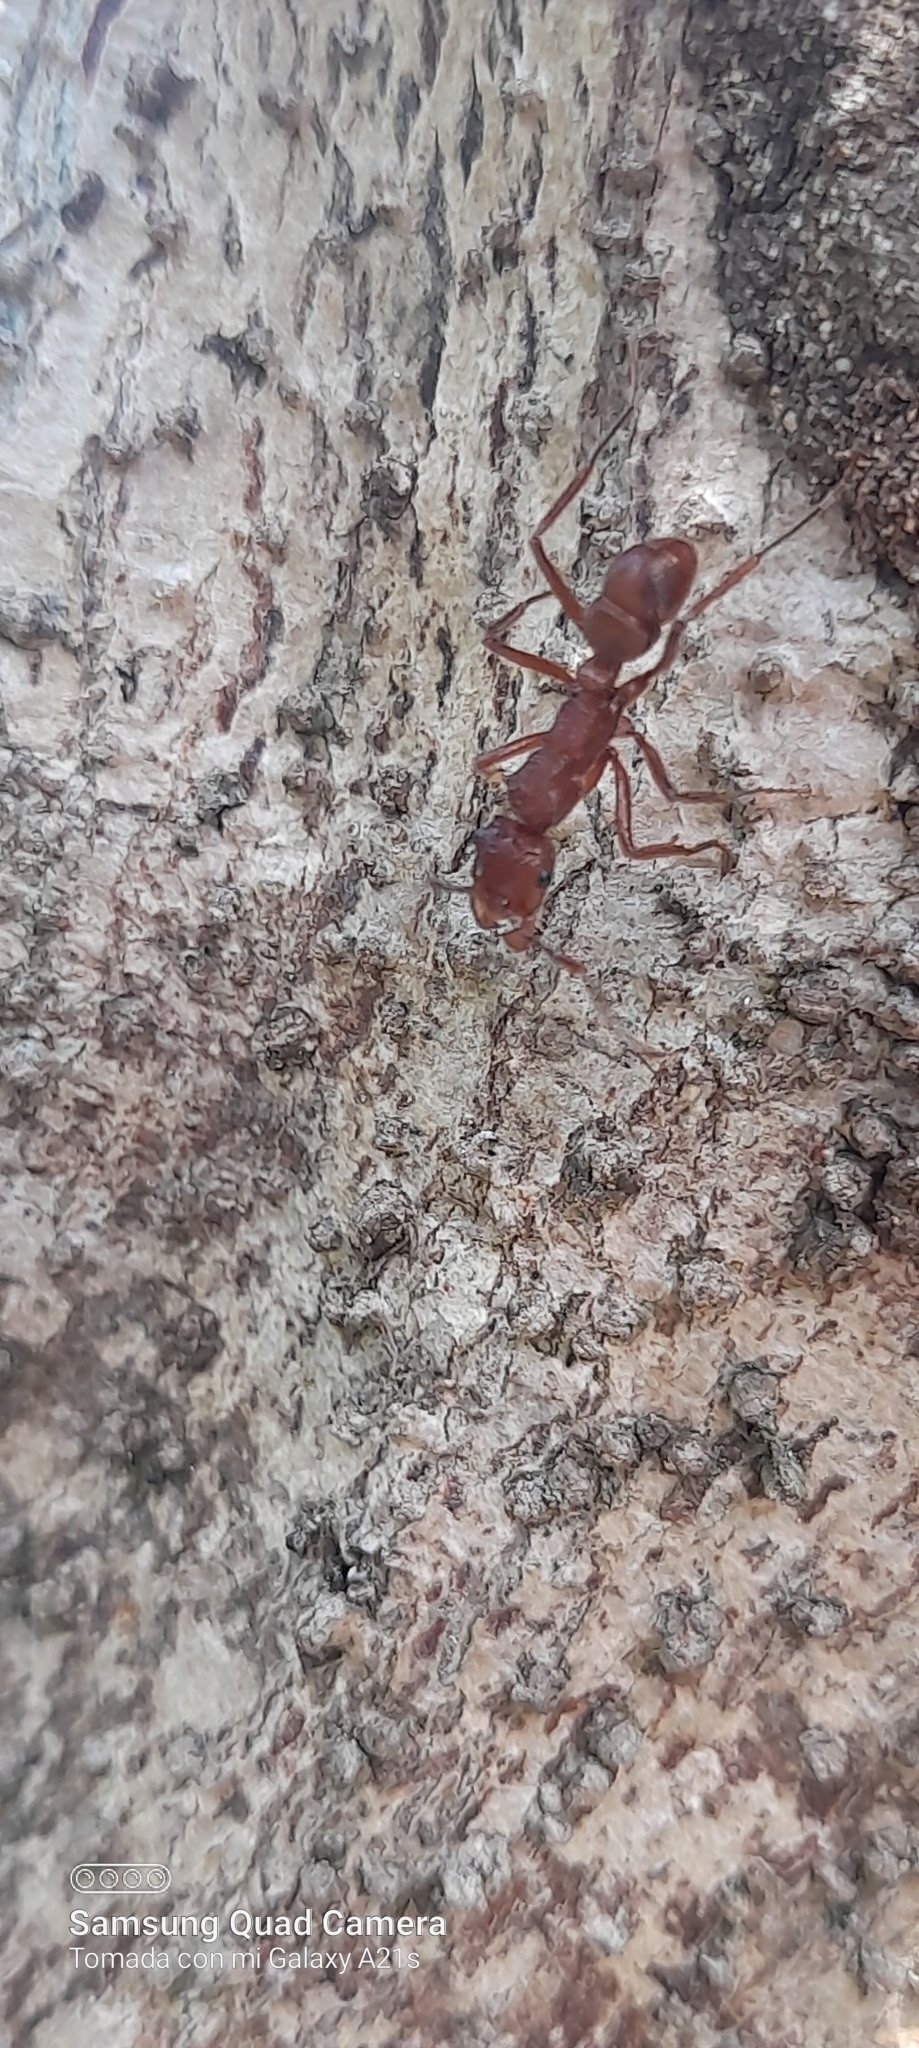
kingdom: Animalia
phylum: Arthropoda
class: Insecta
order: Hymenoptera
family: Formicidae
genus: Ectatomma
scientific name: Ectatomma tuberculatum
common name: Ant
